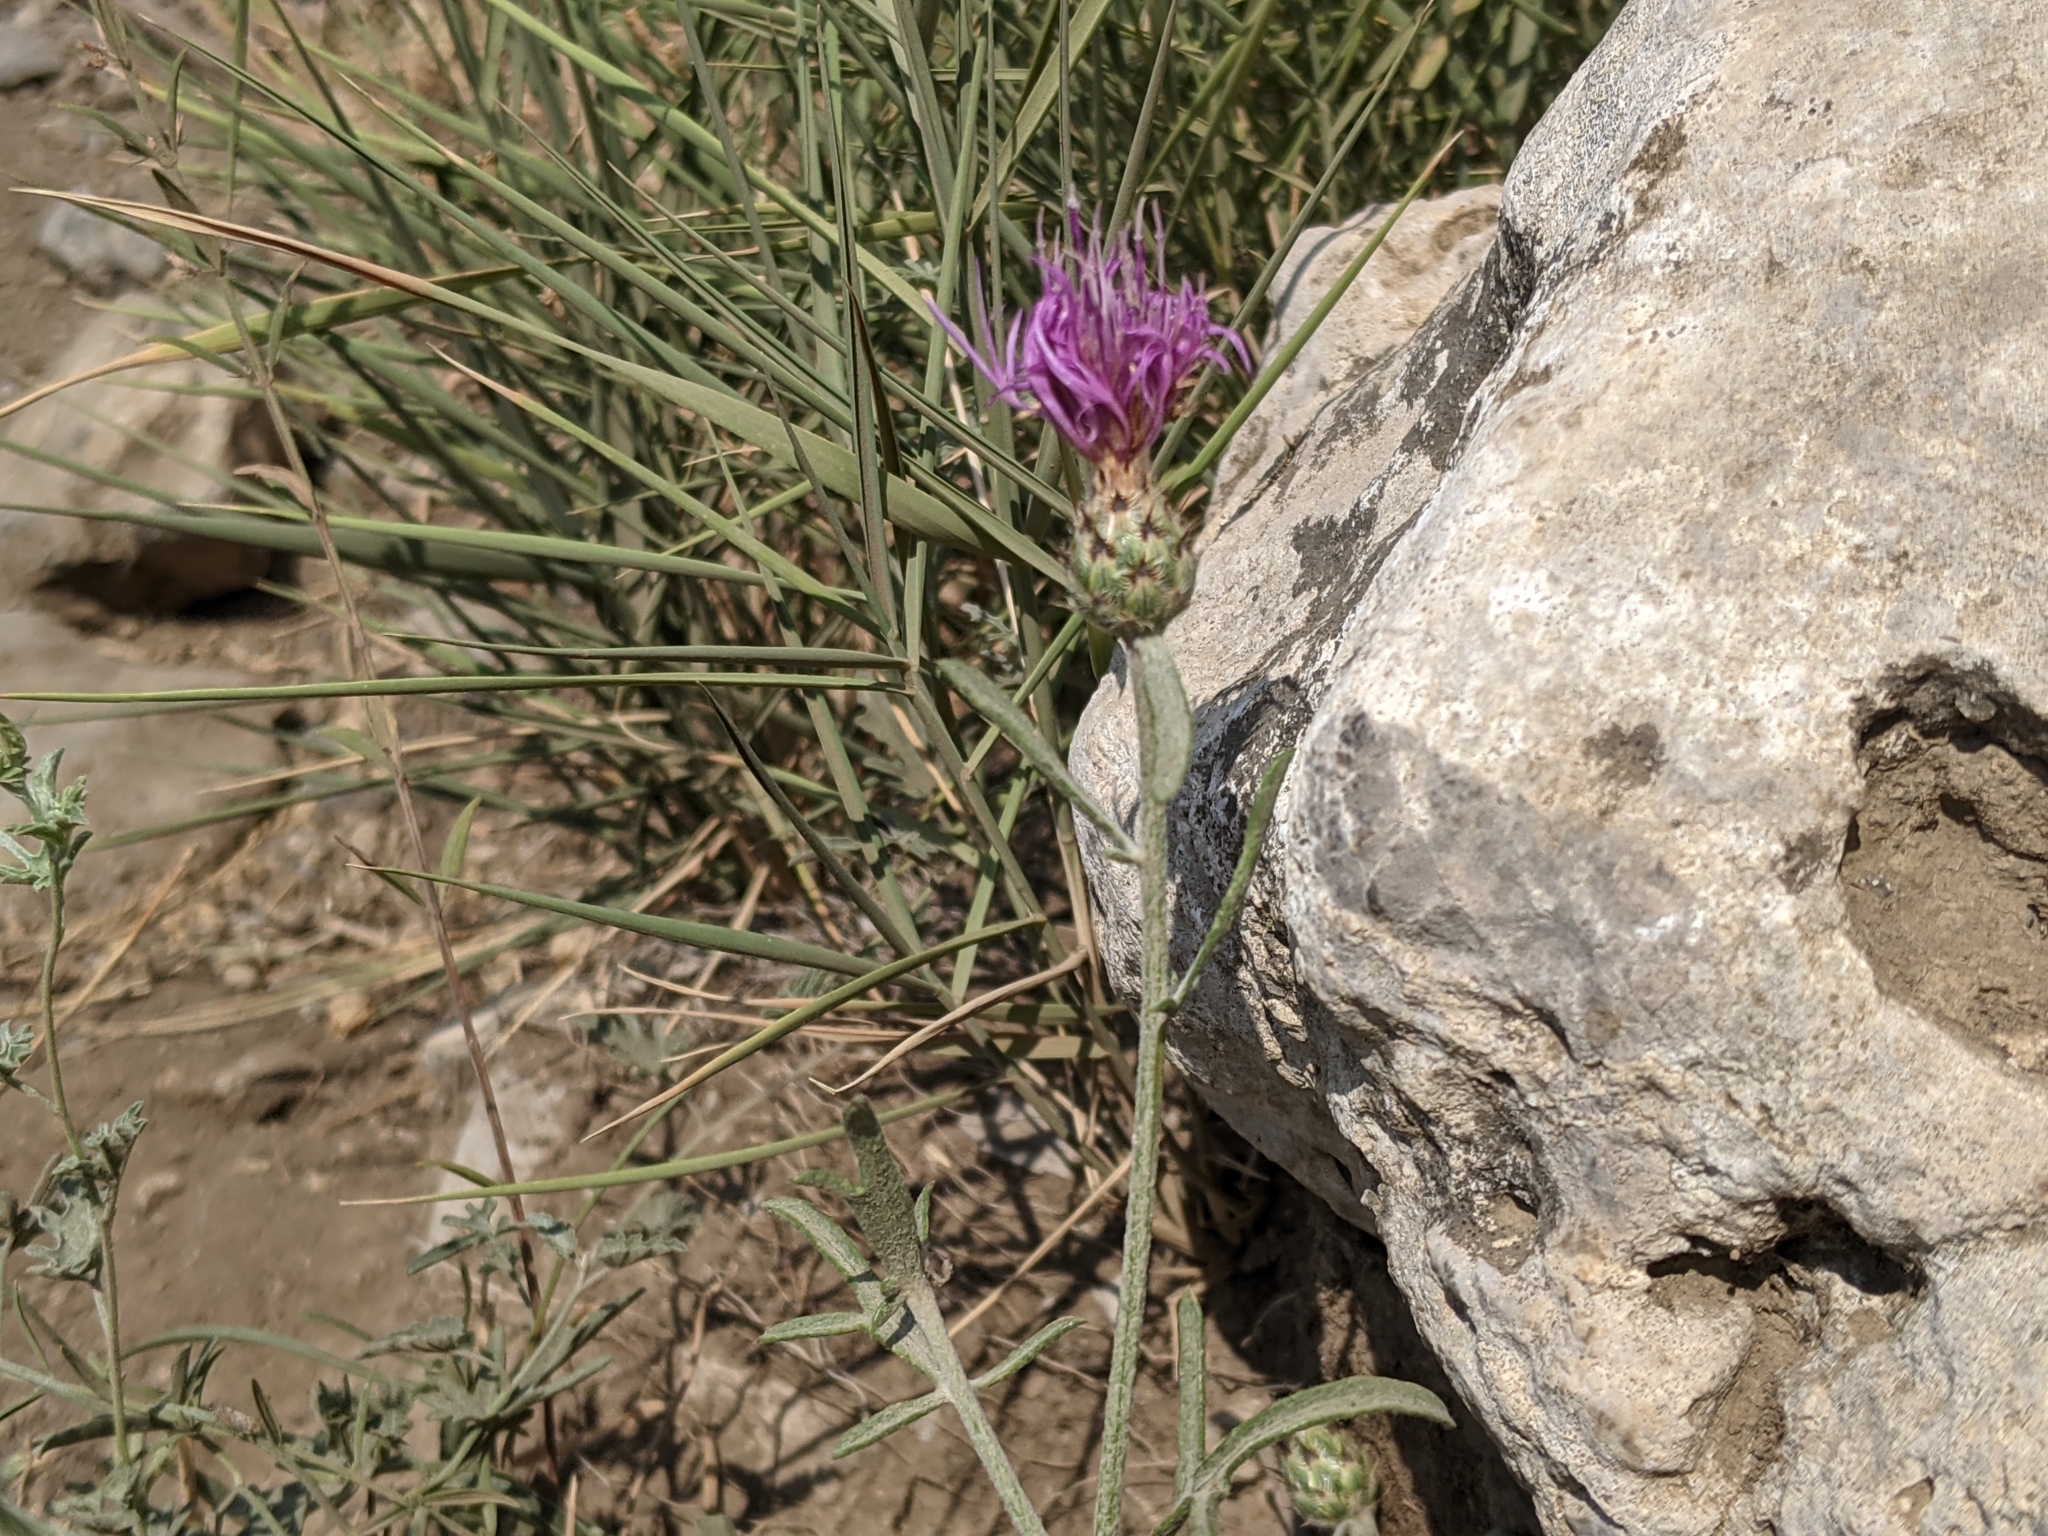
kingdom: Plantae
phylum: Tracheophyta
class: Magnoliopsida
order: Asterales
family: Asteraceae
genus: Centaurea
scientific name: Centaurea tenorei
